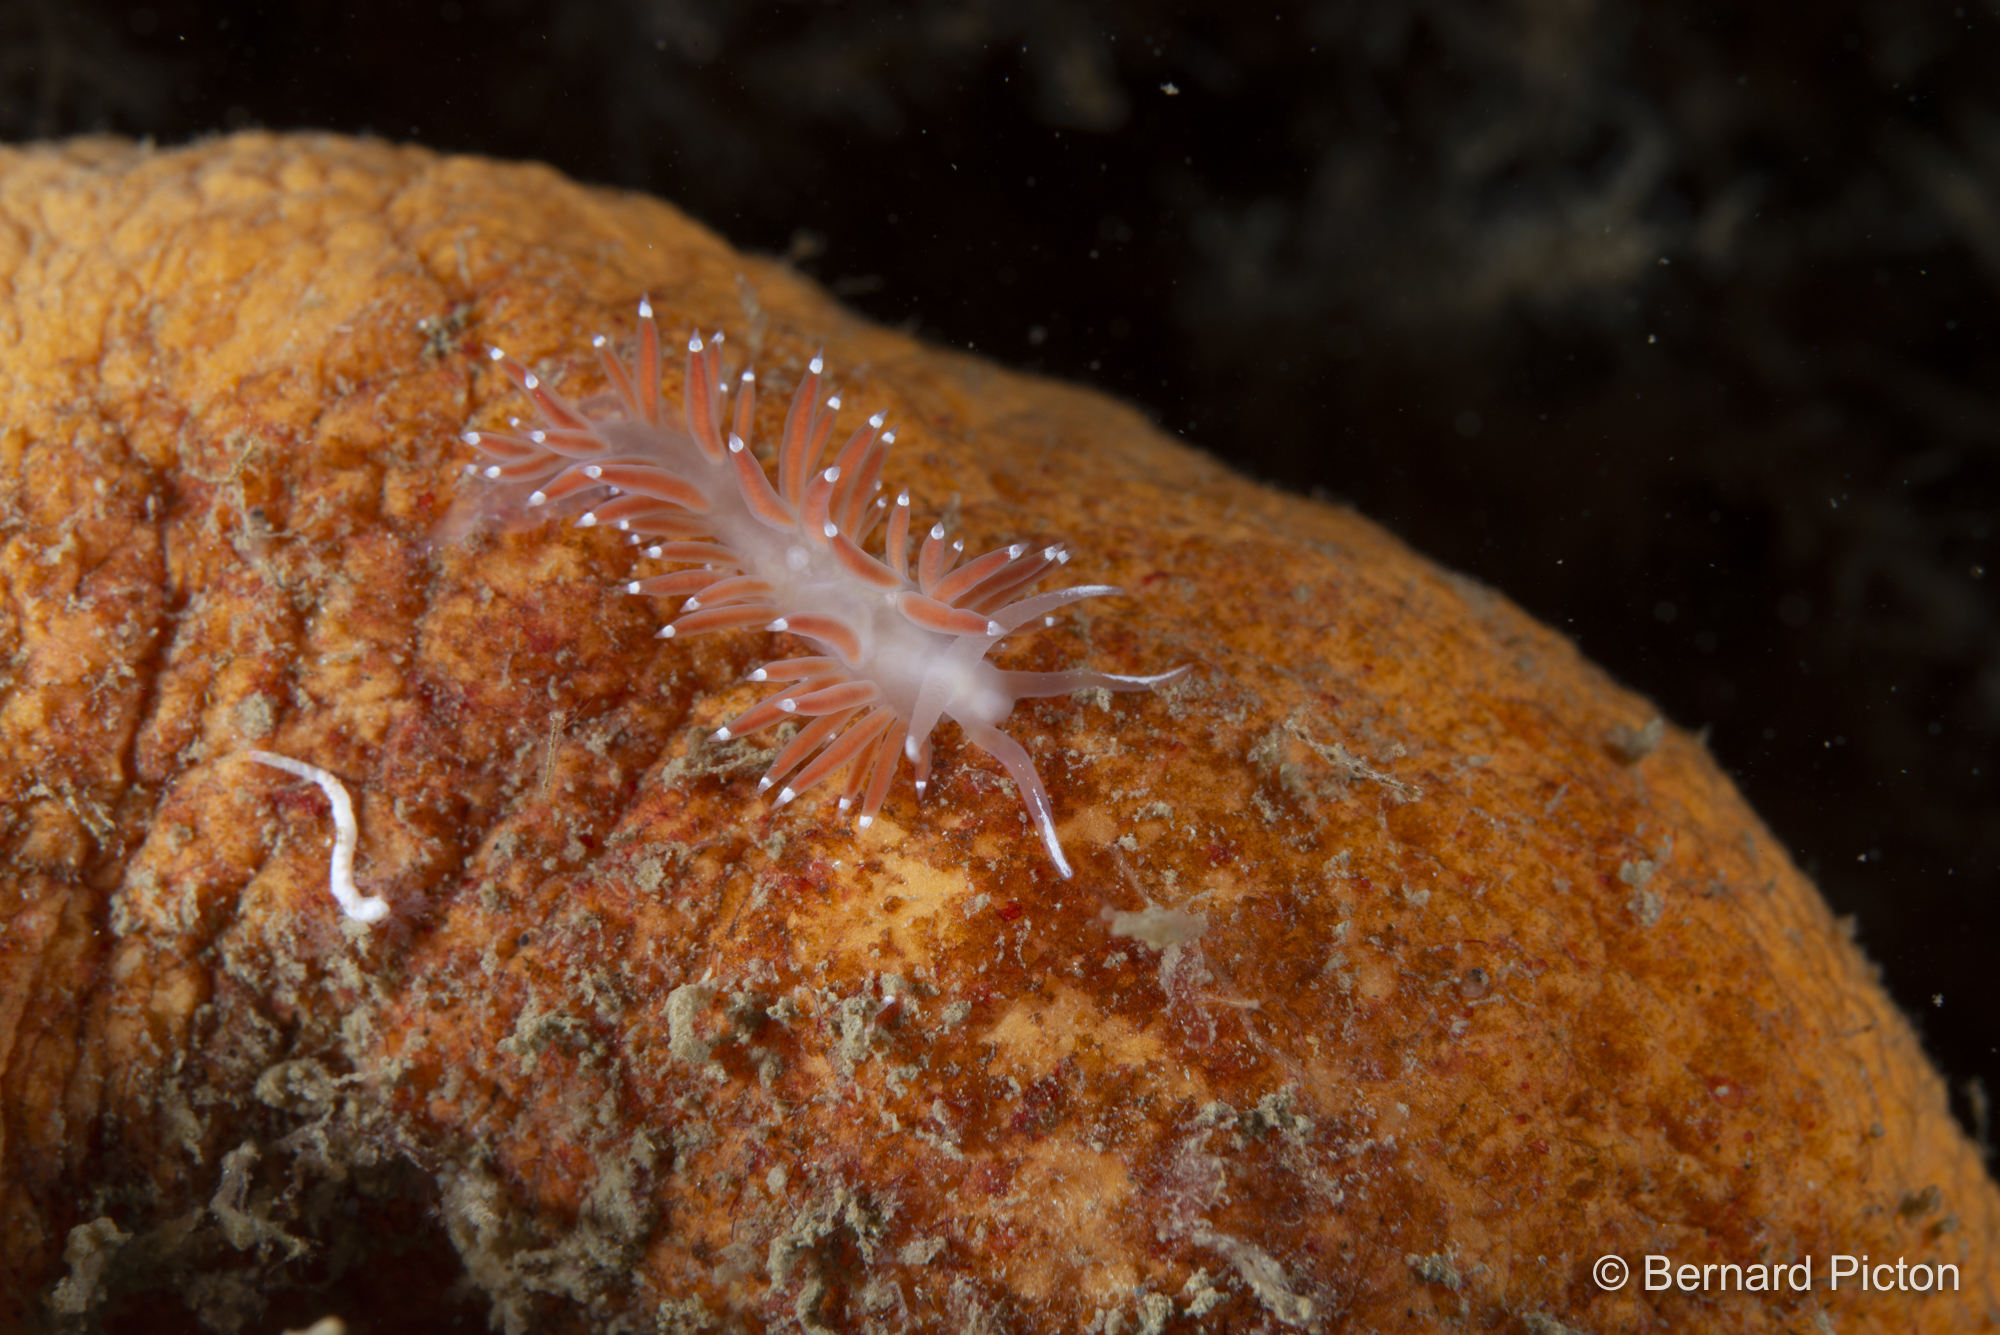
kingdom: Animalia
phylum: Mollusca
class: Gastropoda
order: Nudibranchia
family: Coryphellidae
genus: Coryphella
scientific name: Coryphella browni
